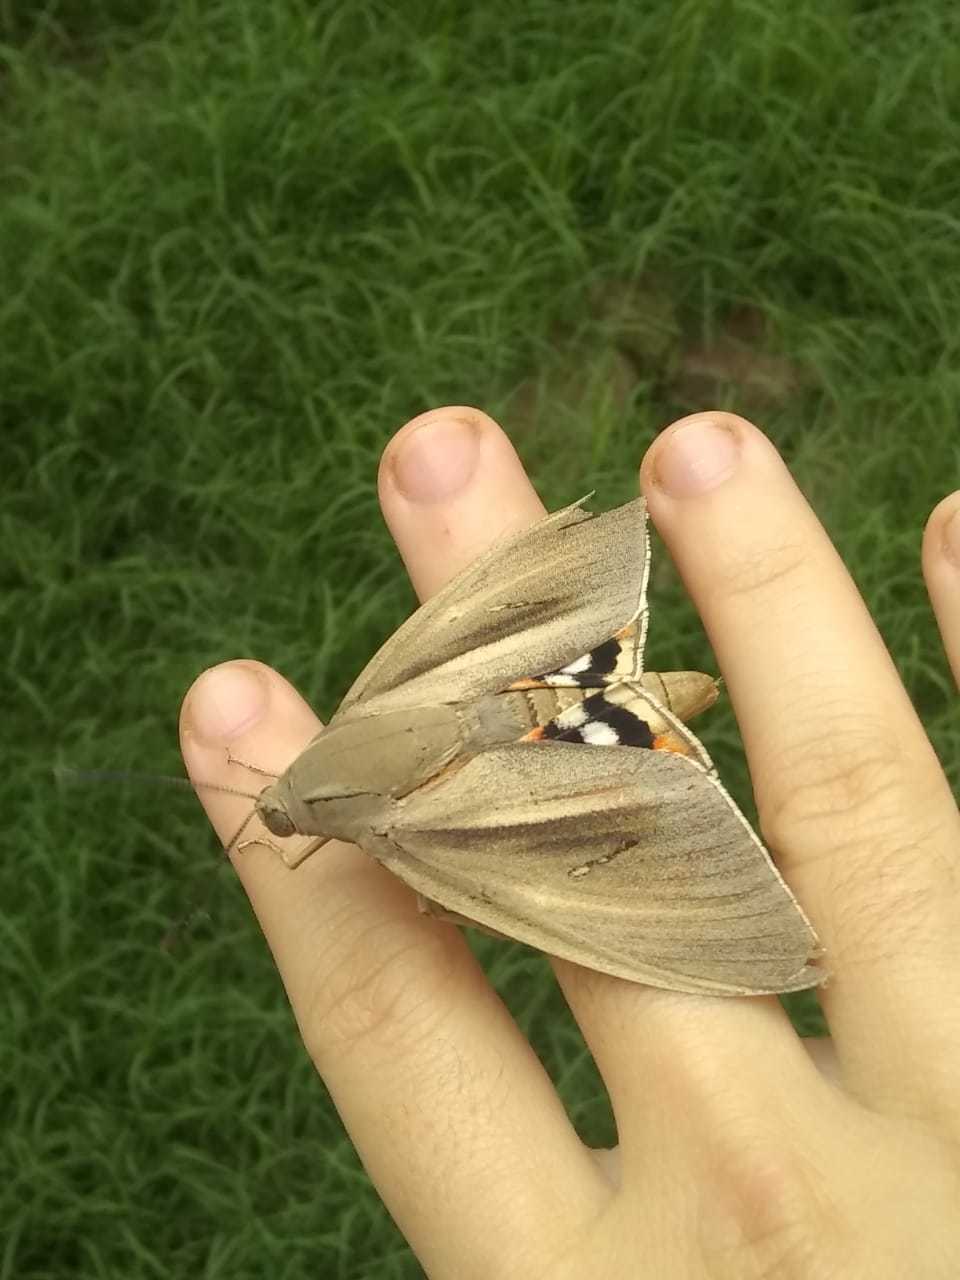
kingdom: Animalia
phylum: Arthropoda
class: Insecta
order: Lepidoptera
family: Castniidae
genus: Paysandisia
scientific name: Paysandisia archon
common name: Palm moth
